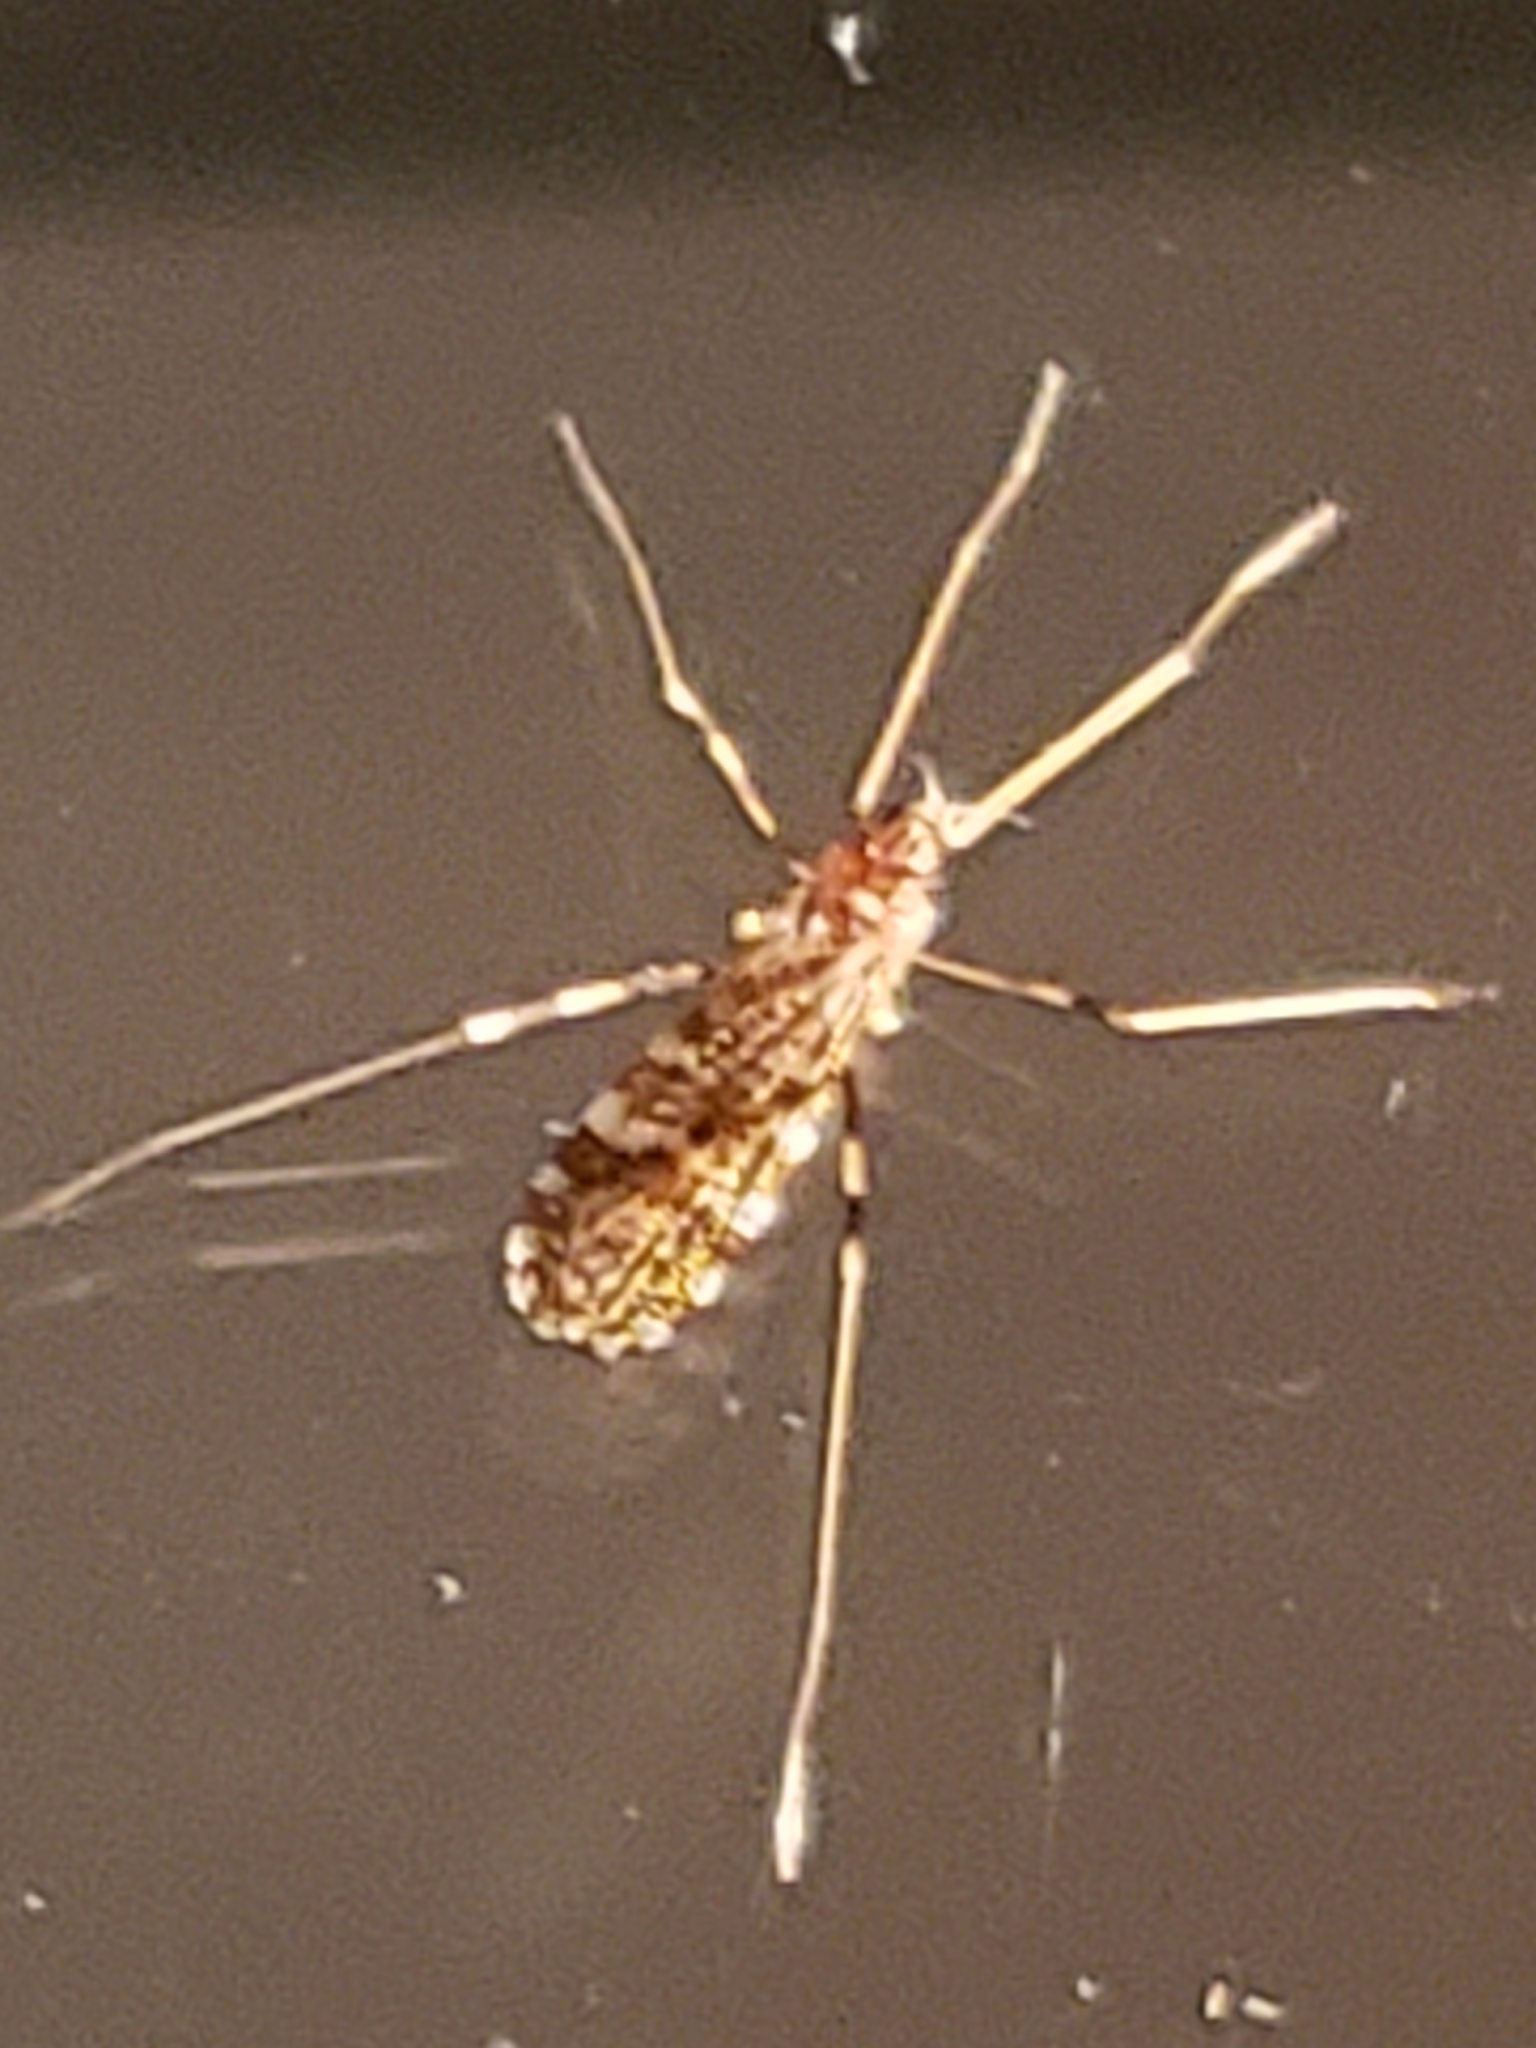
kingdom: Animalia
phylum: Arthropoda
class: Insecta
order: Diptera
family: Limoniidae
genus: Erioptera
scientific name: Erioptera caliptera
